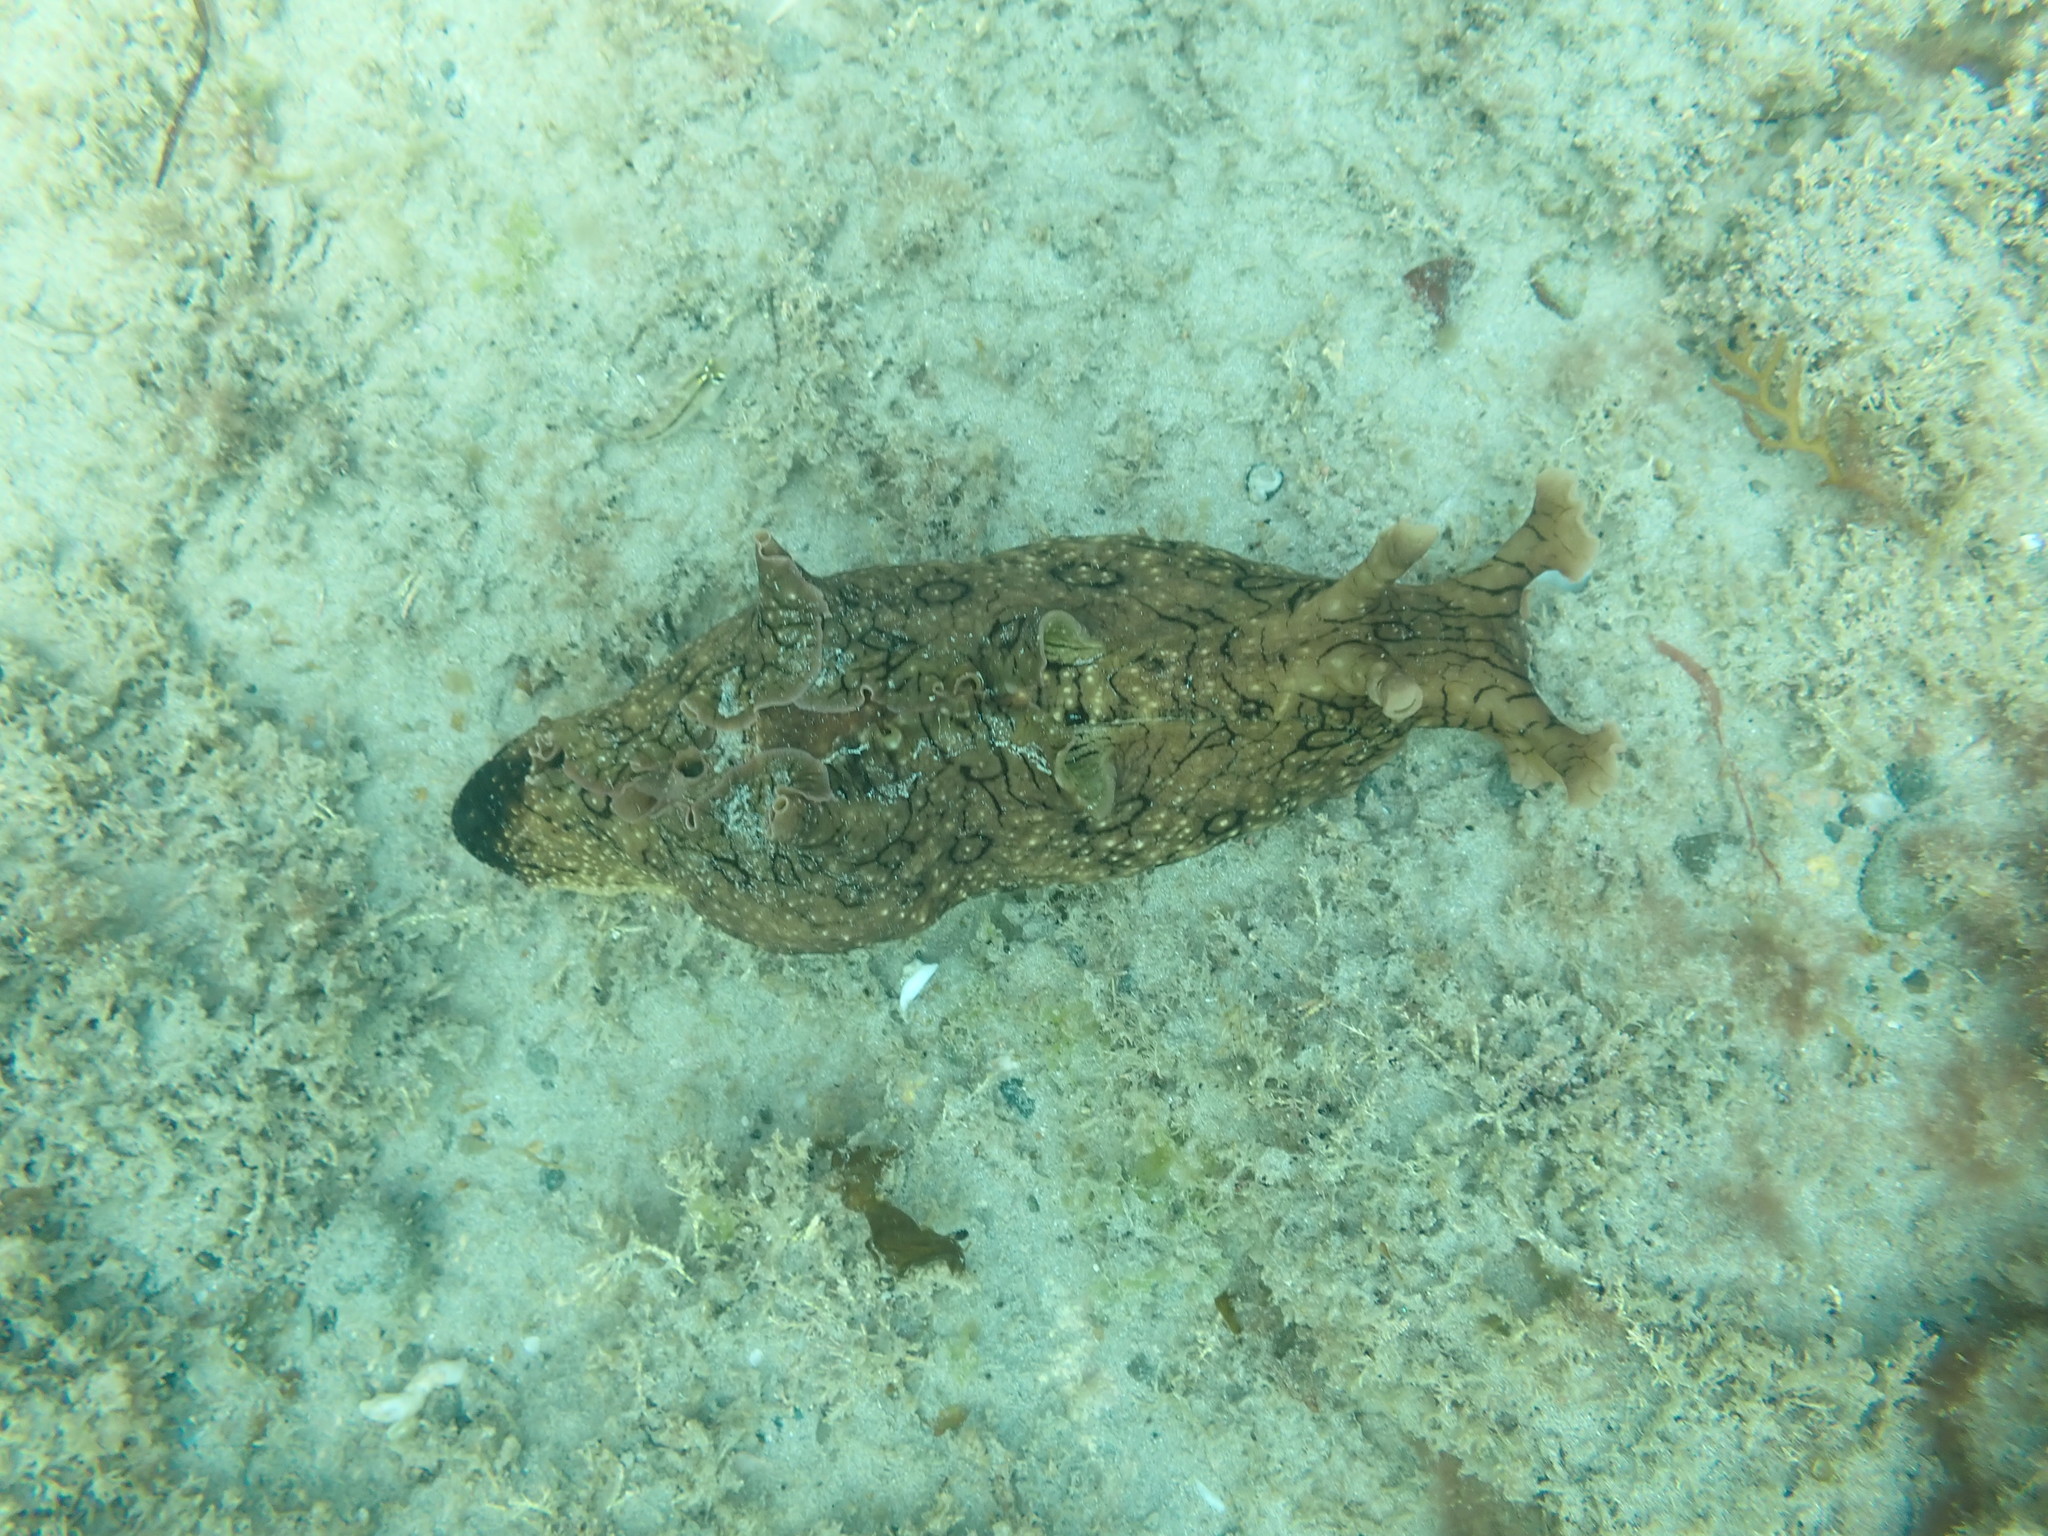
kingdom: Animalia
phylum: Mollusca
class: Gastropoda
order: Aplysiida
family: Aplysiidae
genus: Aplysia
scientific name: Aplysia argus
